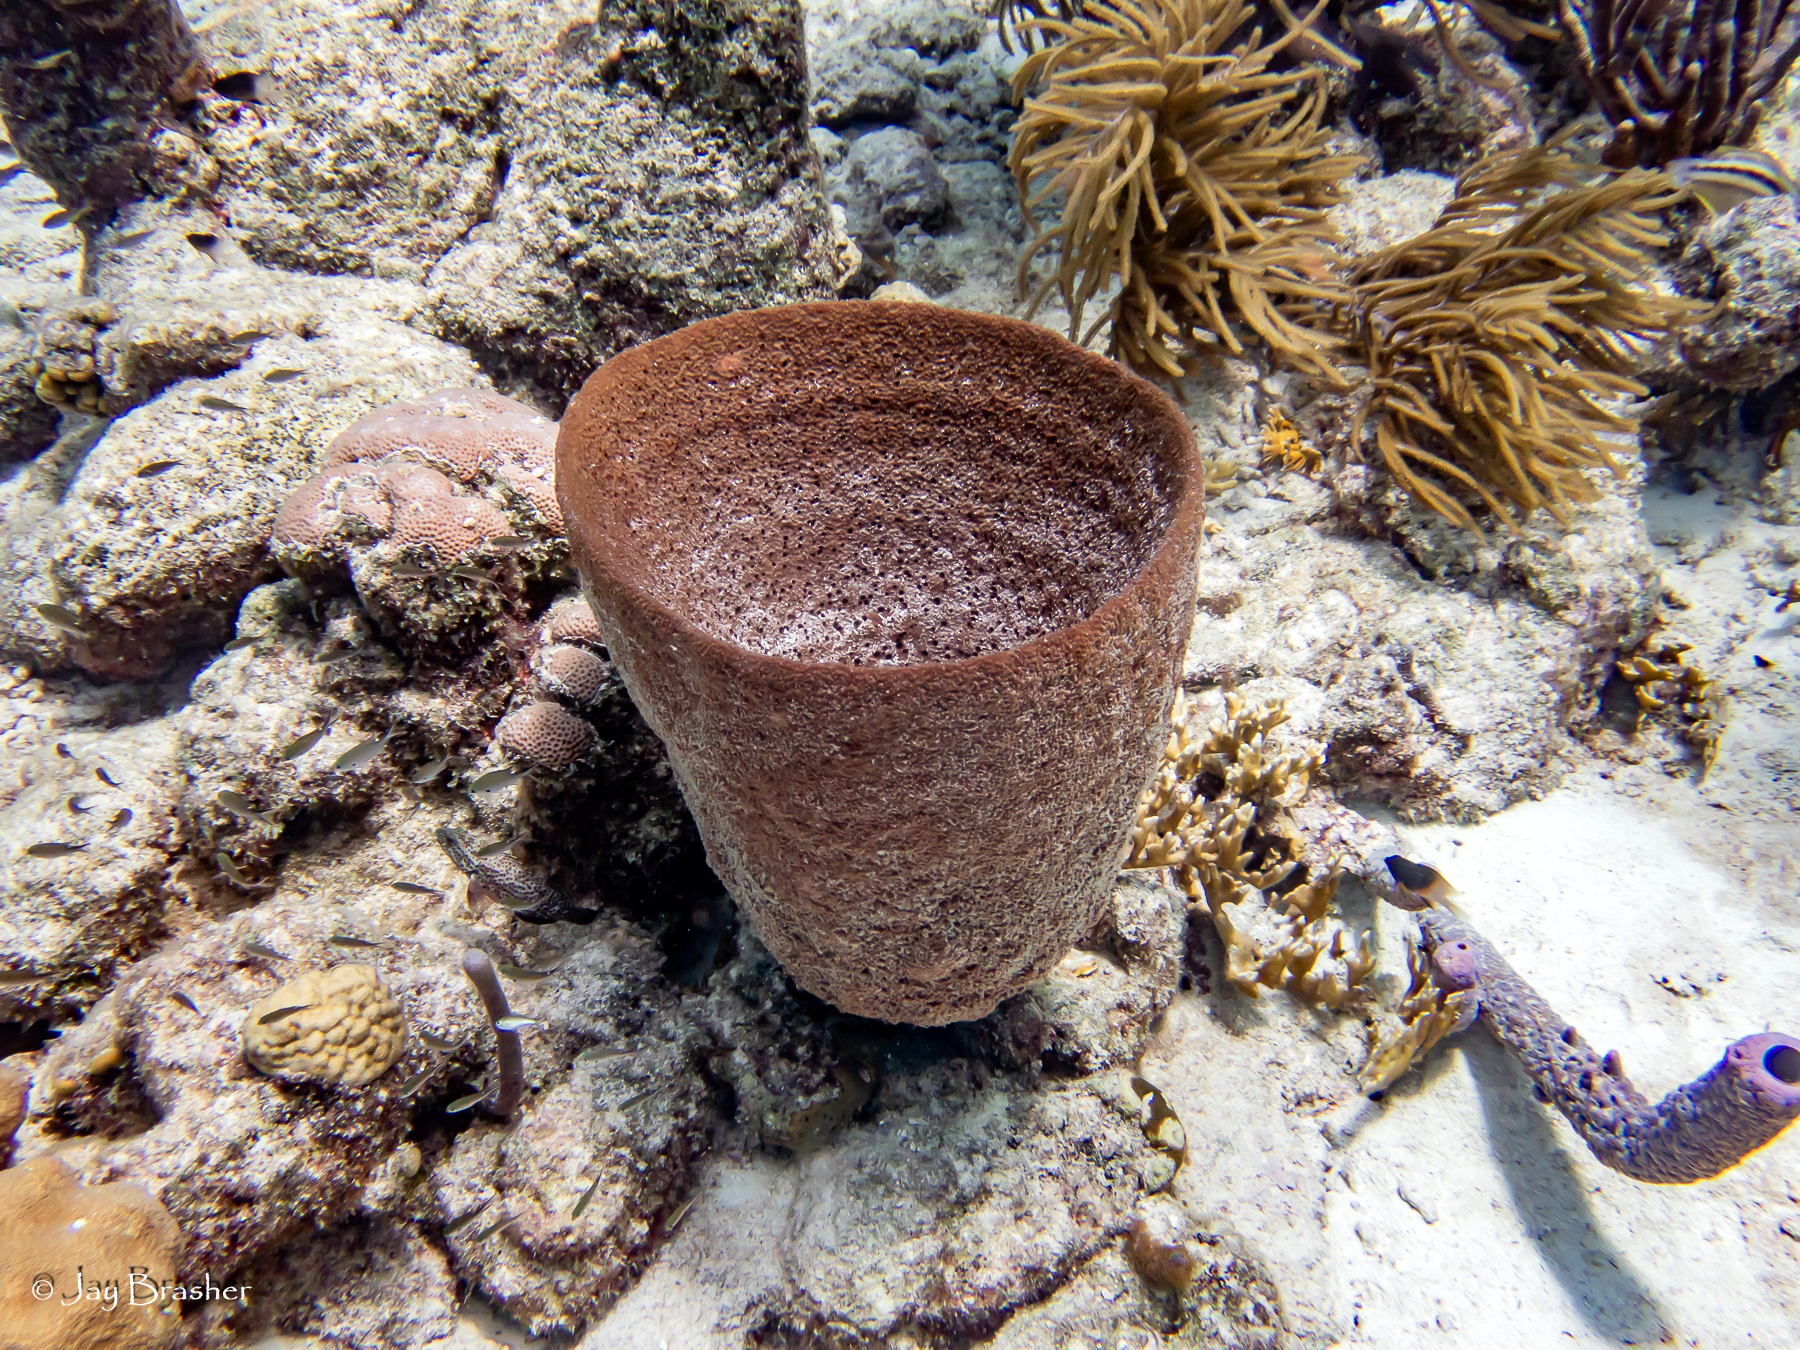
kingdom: Animalia
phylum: Porifera
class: Demospongiae
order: Verongiida
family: Aplysinidae
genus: Aplysina
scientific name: Aplysina archeri
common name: Stove-pipe sponge
